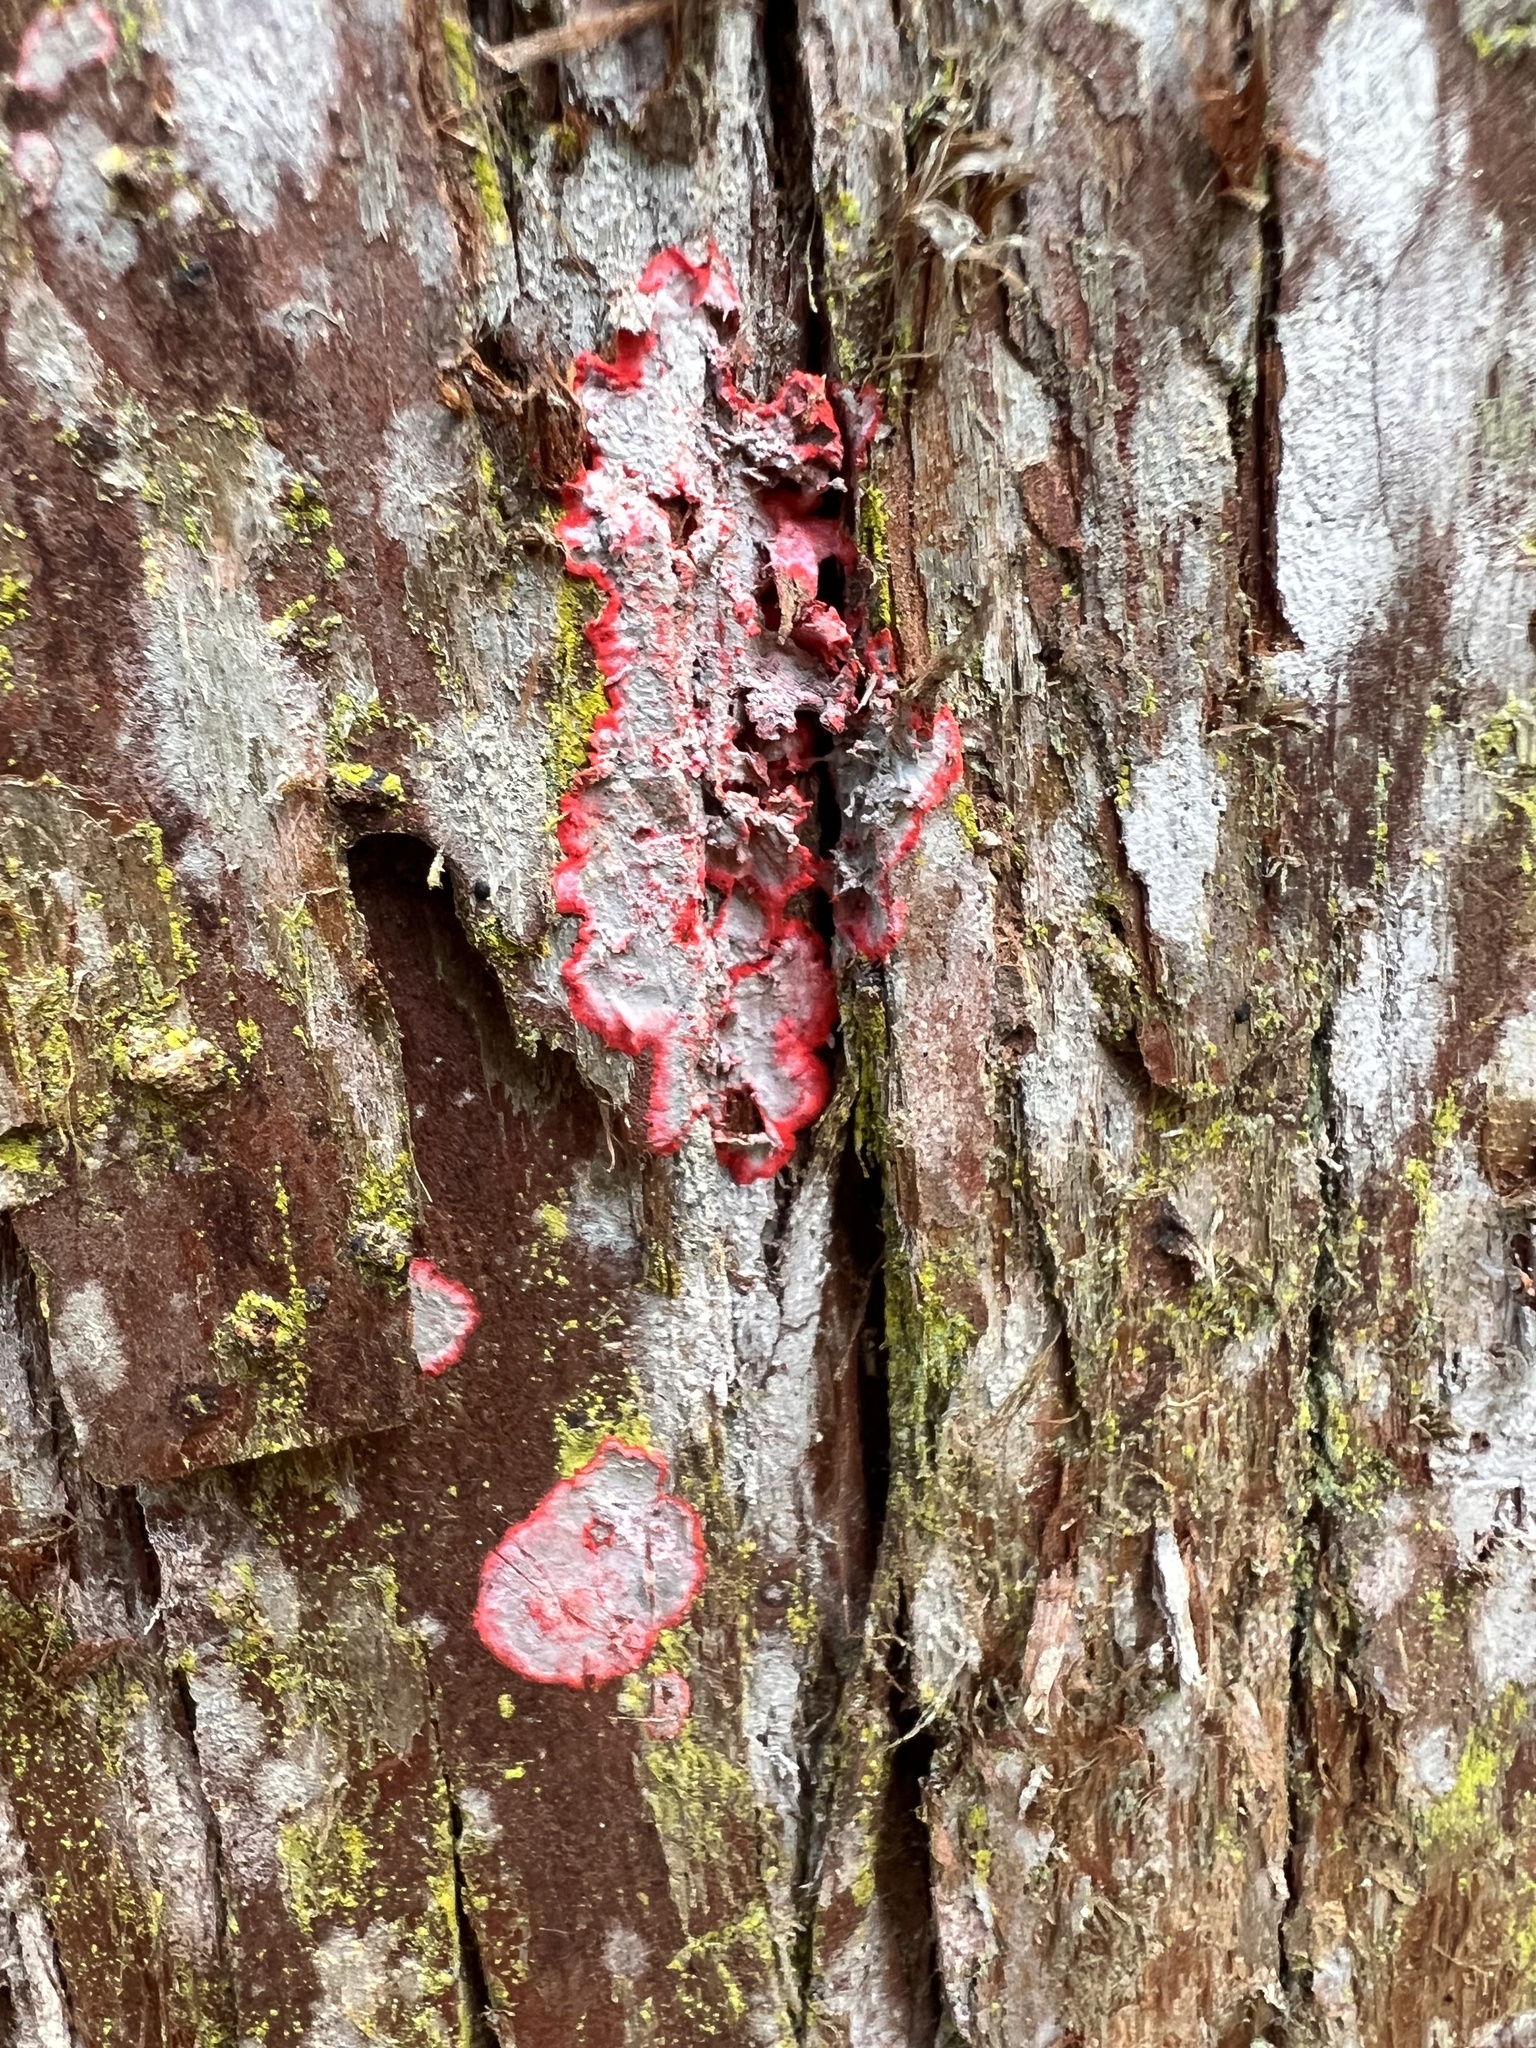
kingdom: Fungi
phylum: Ascomycota
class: Arthoniomycetes
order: Arthoniales
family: Arthoniaceae
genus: Herpothallon
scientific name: Herpothallon rubrocinctum
